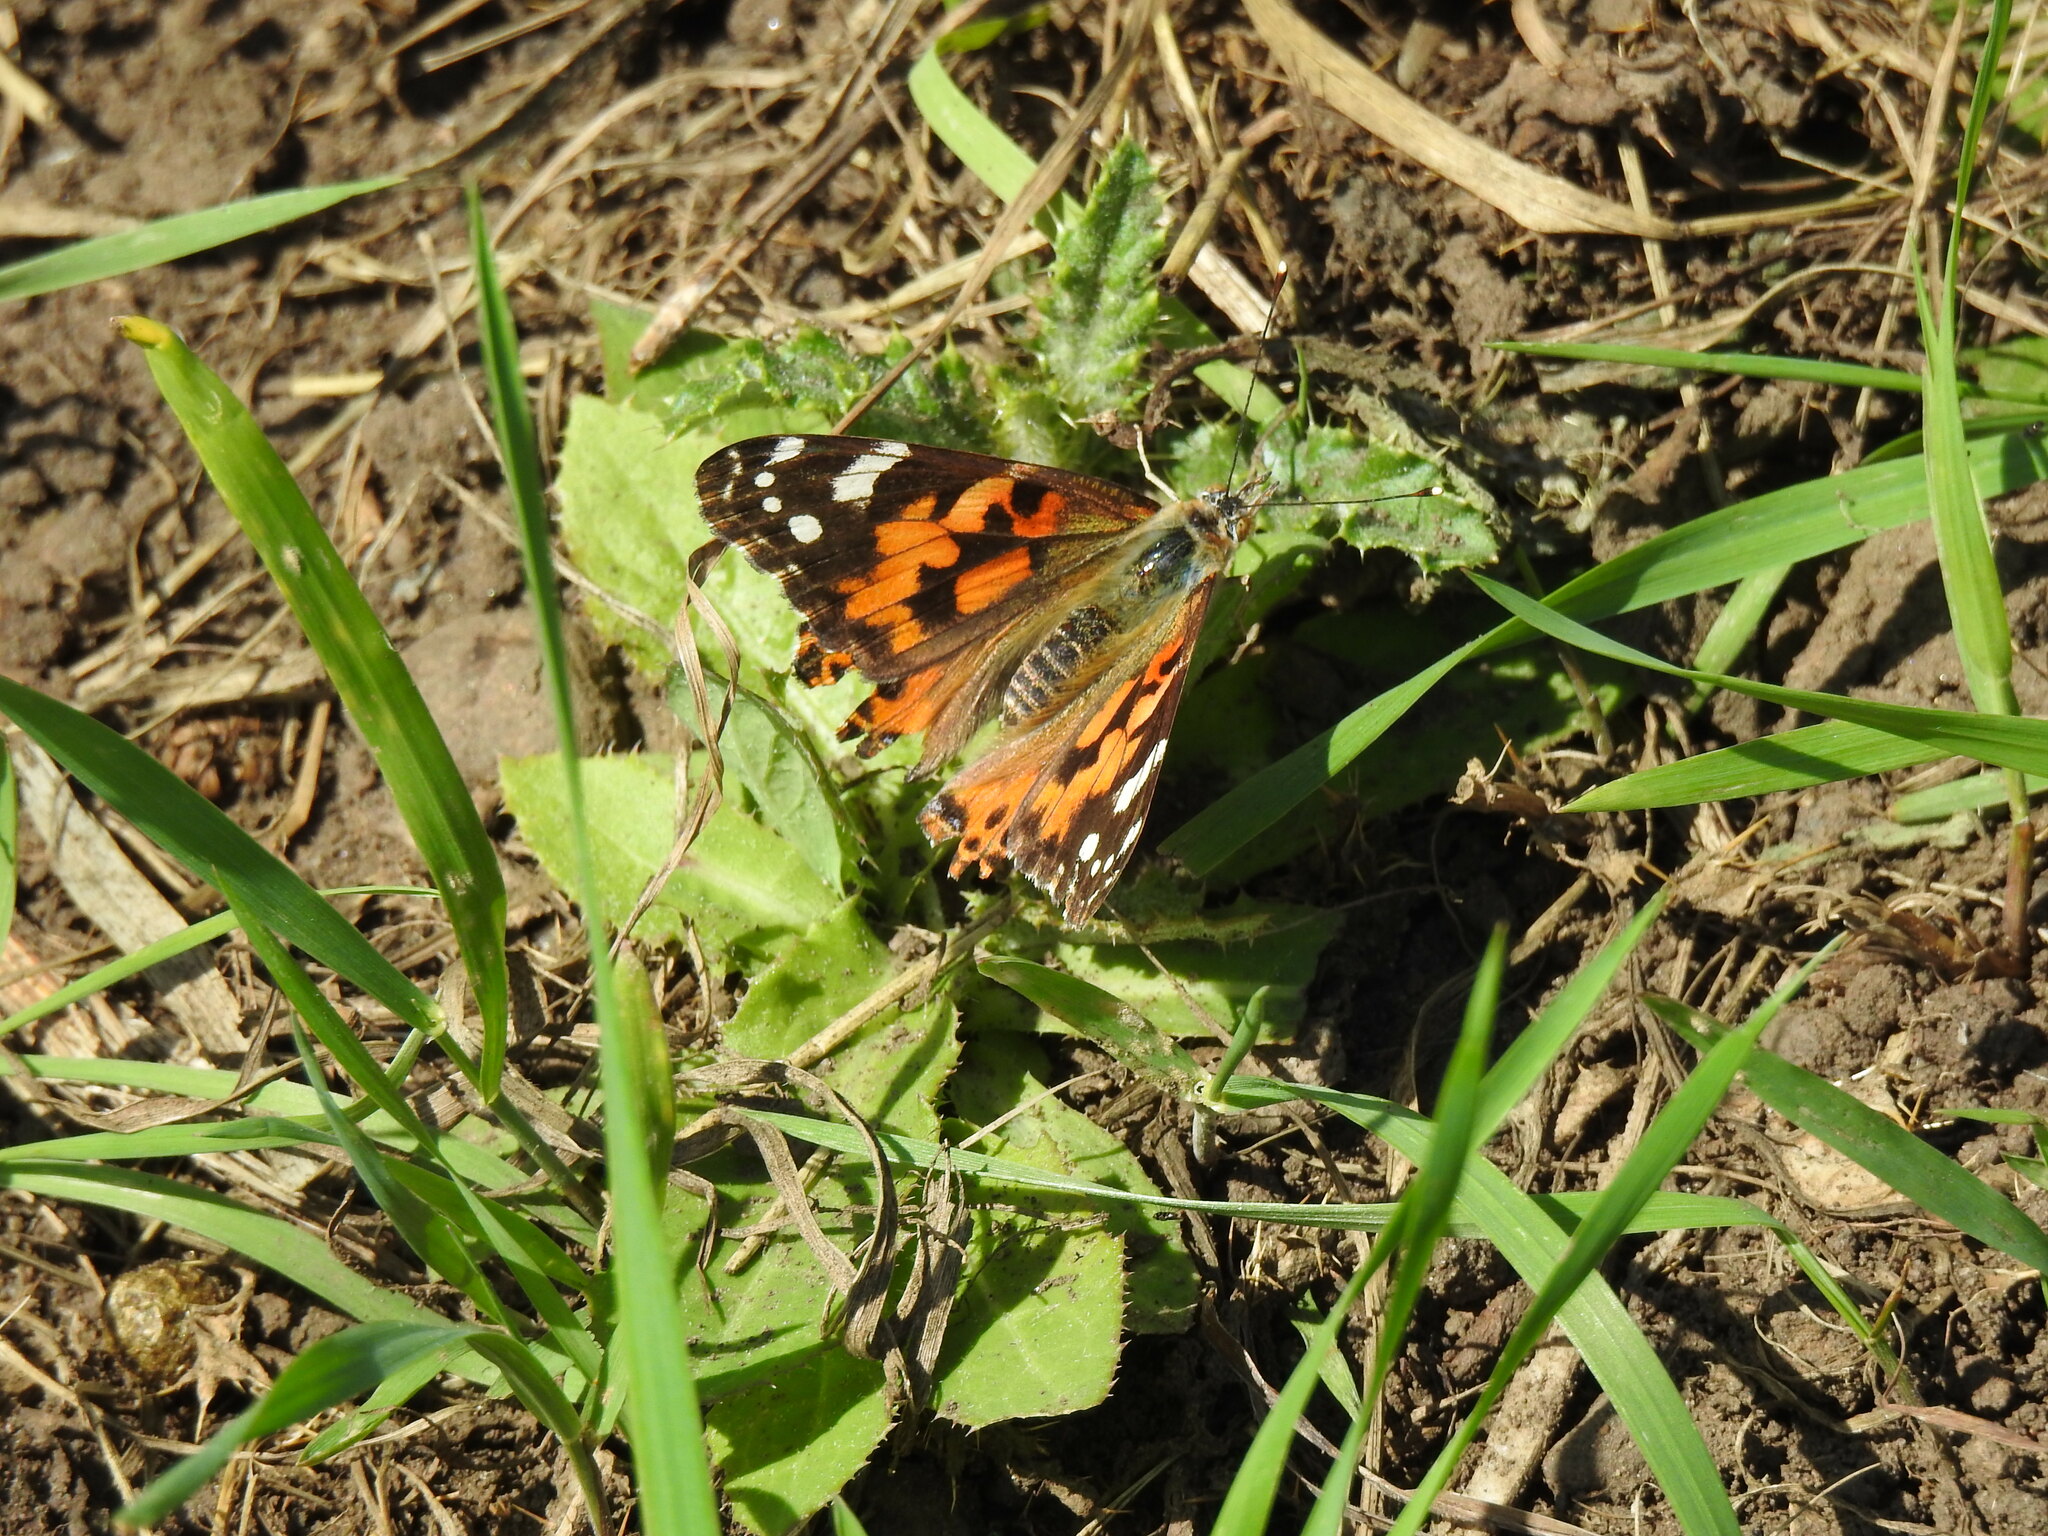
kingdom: Animalia
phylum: Arthropoda
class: Insecta
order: Lepidoptera
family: Nymphalidae
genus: Vanessa
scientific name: Vanessa cardui
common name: Painted lady
